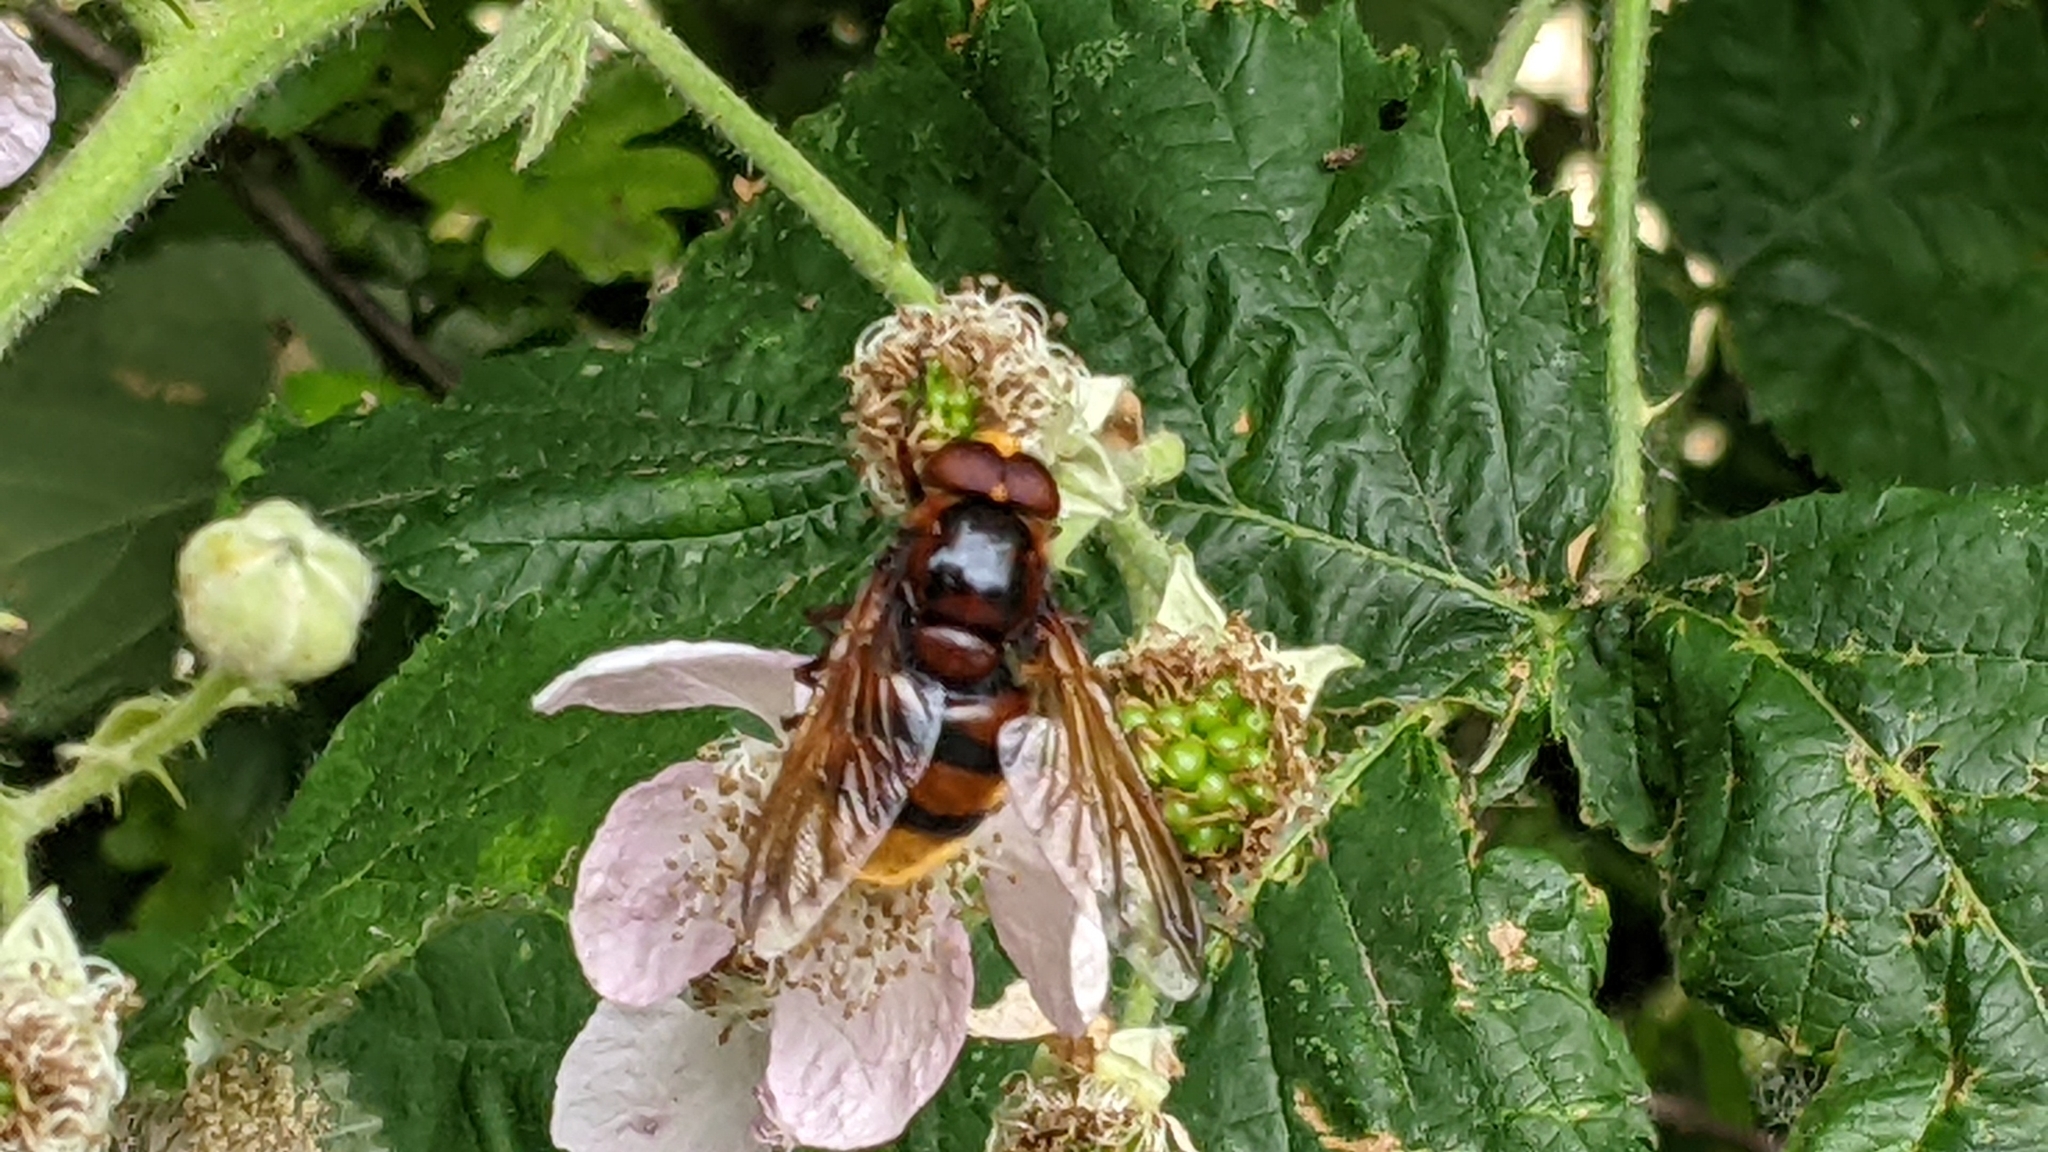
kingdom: Animalia
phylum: Arthropoda
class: Insecta
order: Diptera
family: Syrphidae
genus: Volucella
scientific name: Volucella zonaria
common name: Hornet hoverfly
